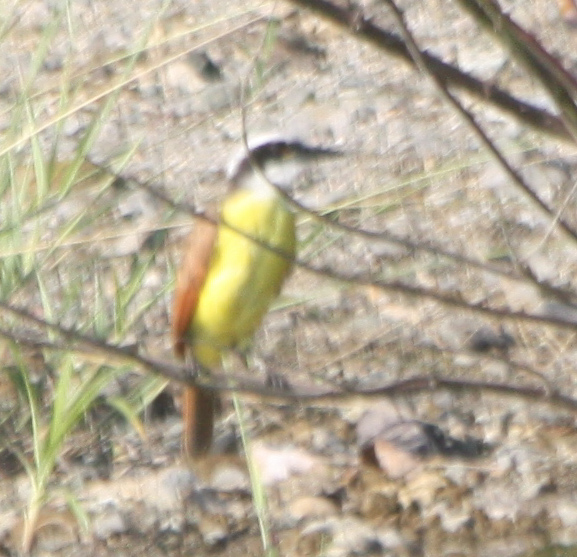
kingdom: Animalia
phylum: Chordata
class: Aves
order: Passeriformes
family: Tyrannidae
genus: Pitangus
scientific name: Pitangus sulphuratus
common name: Great kiskadee
